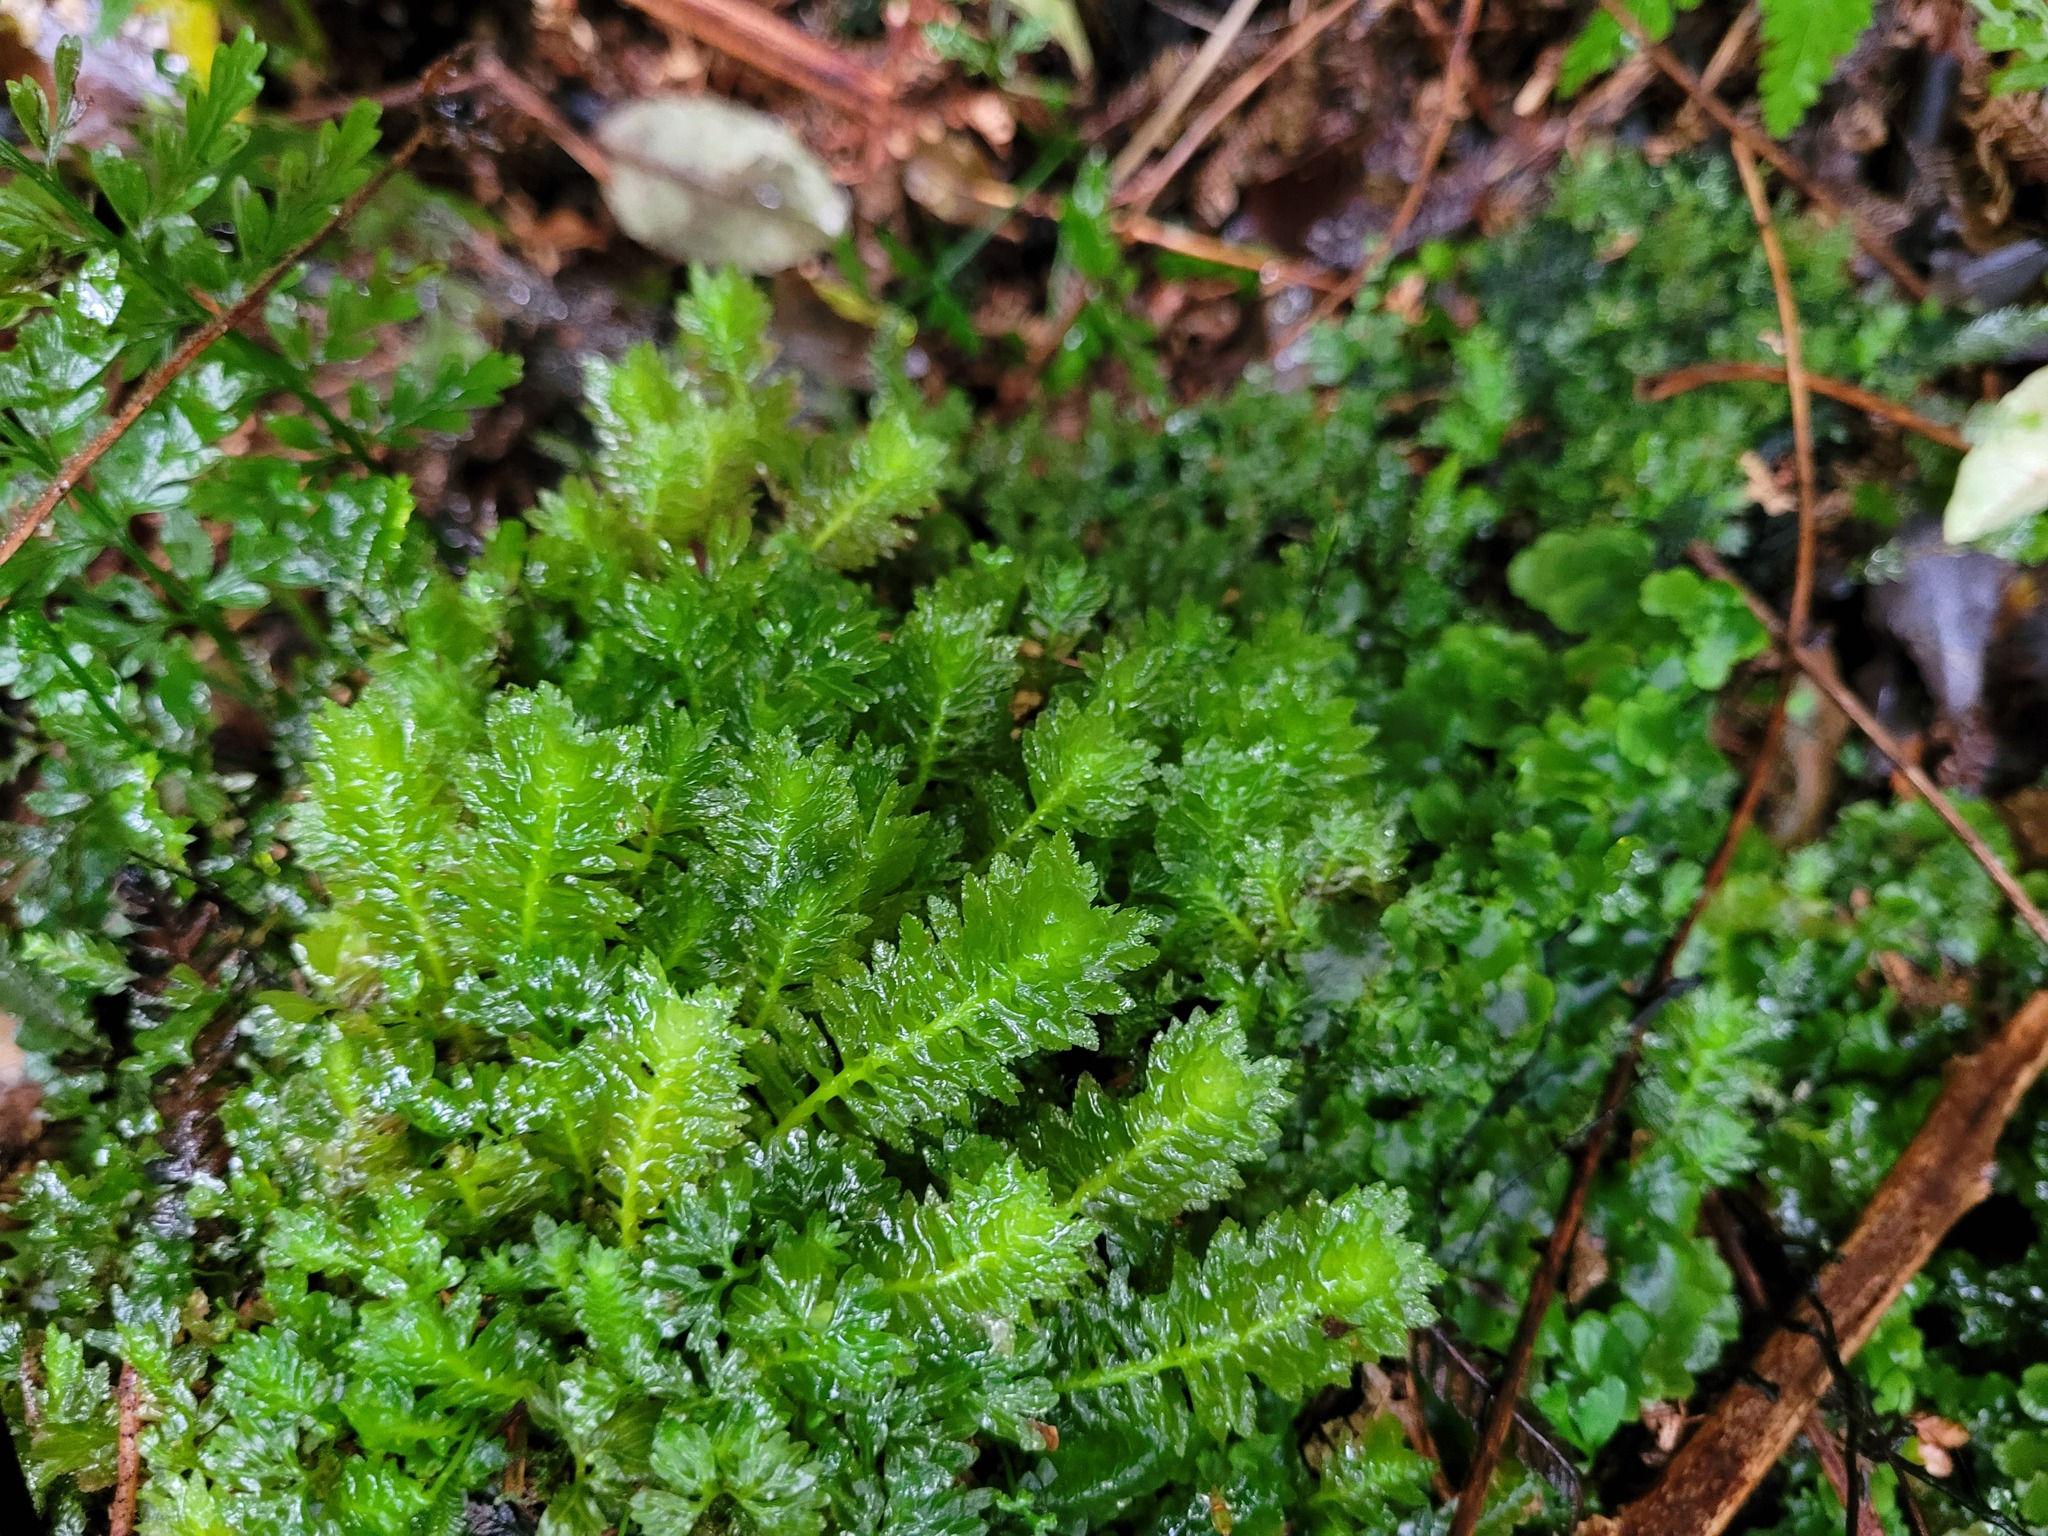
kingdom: Plantae
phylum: Marchantiophyta
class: Jungermanniopsida
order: Jungermanniales
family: Schistochilaceae
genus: Schistochila
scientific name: Schistochila appendiculata
